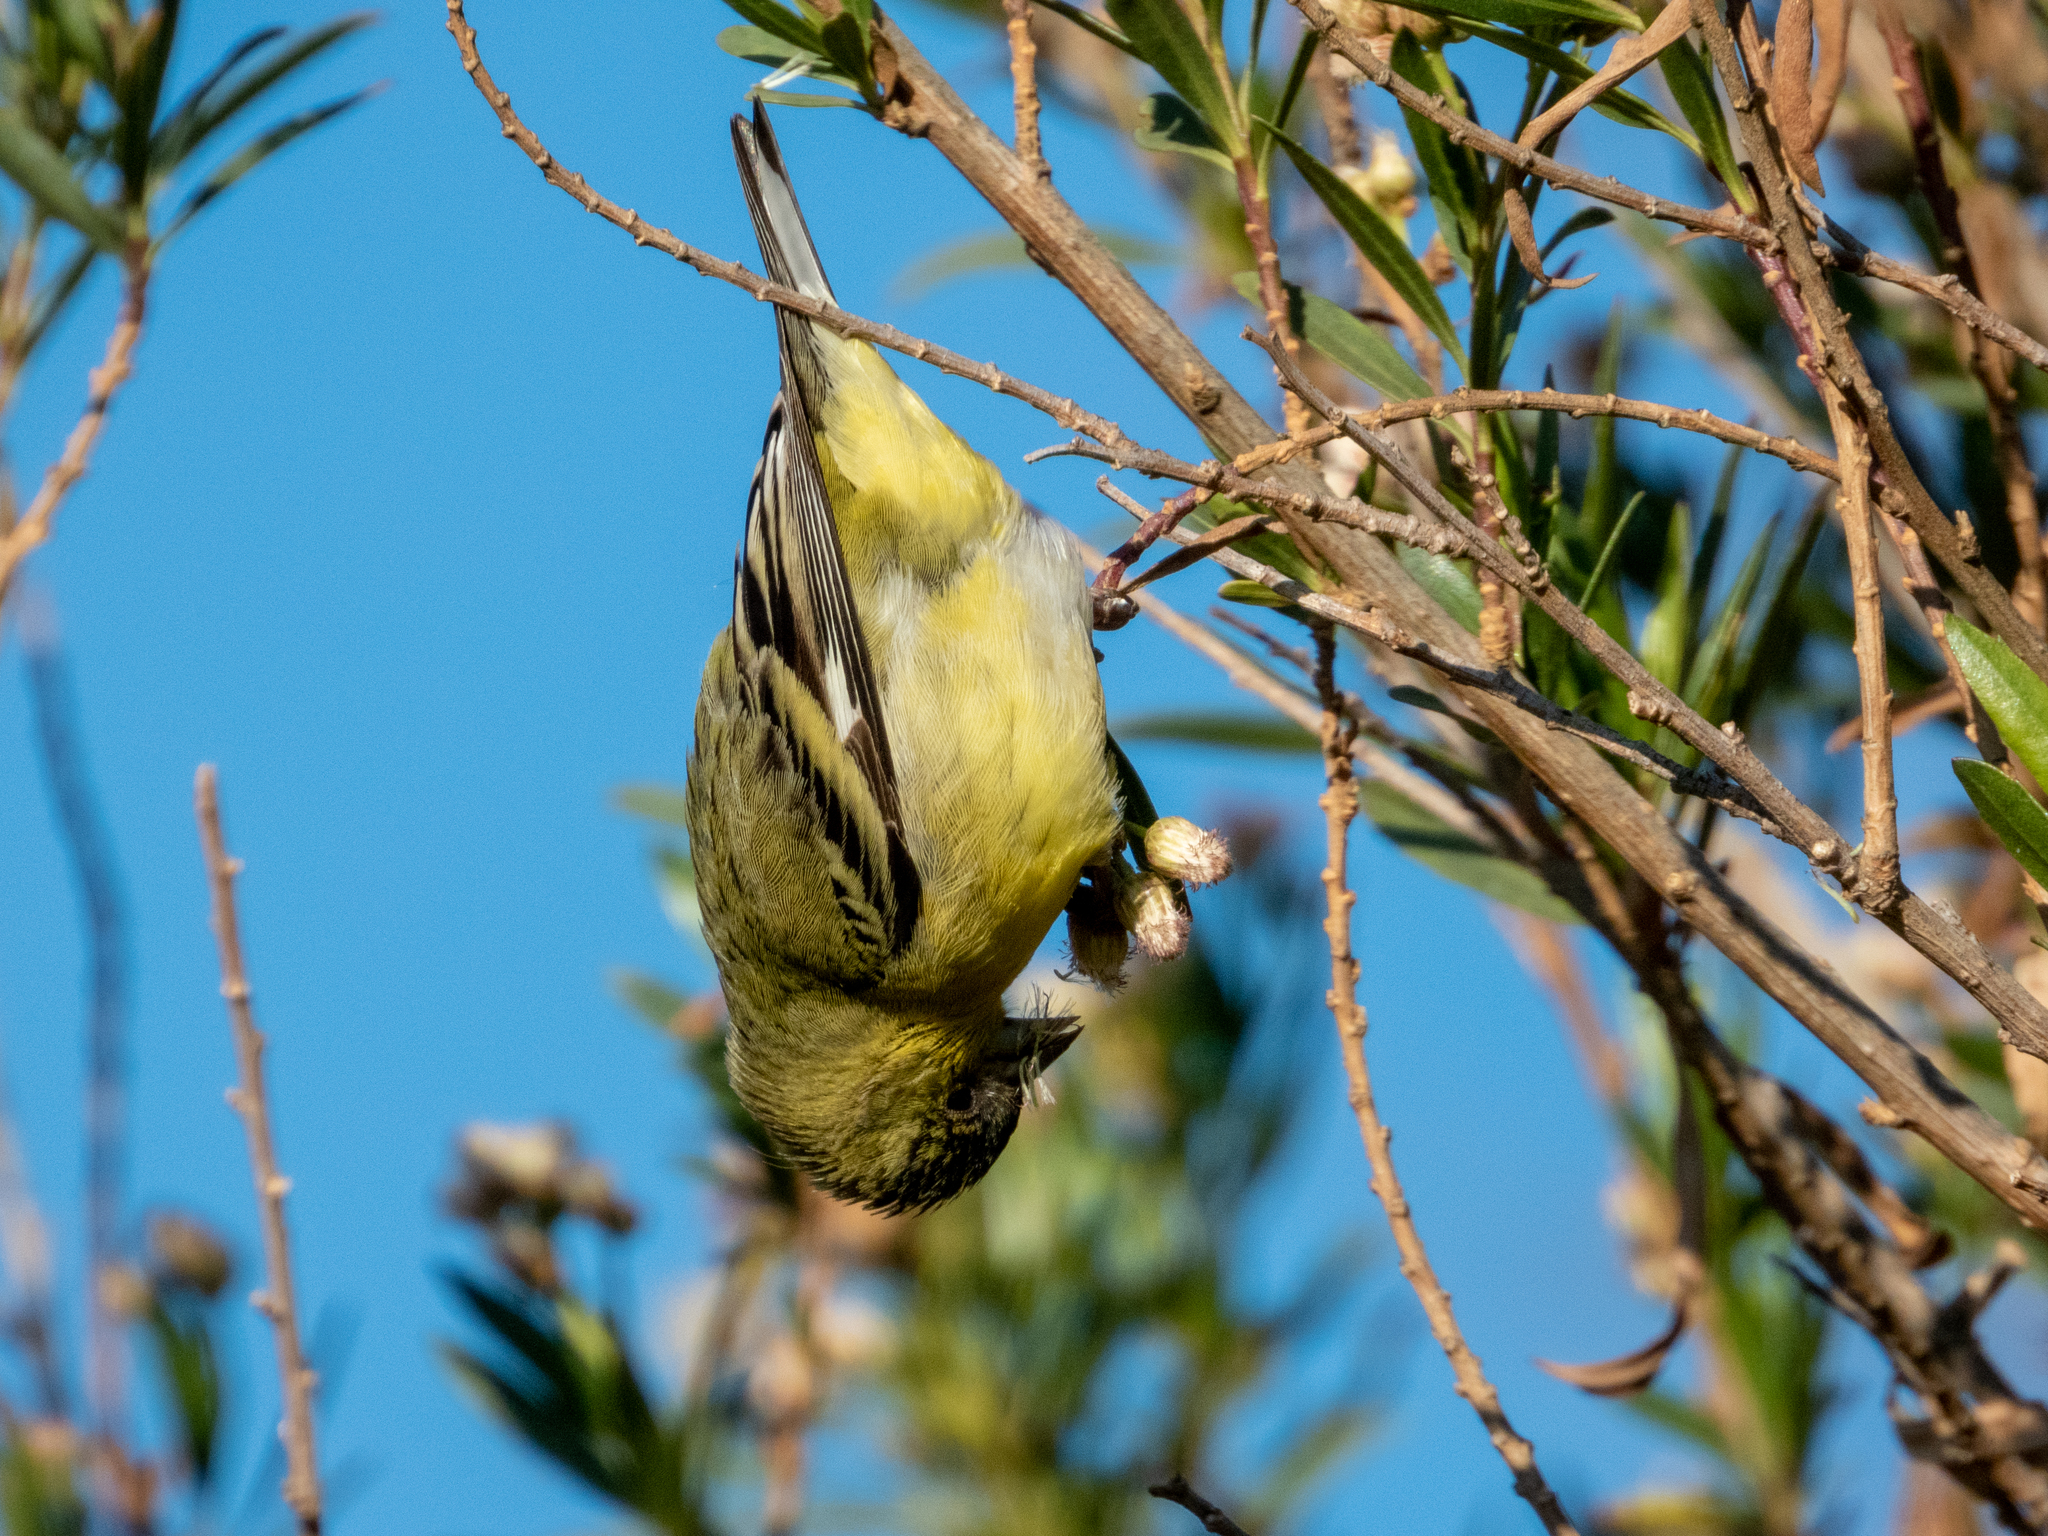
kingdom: Animalia
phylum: Chordata
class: Aves
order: Passeriformes
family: Fringillidae
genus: Spinus
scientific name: Spinus psaltria
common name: Lesser goldfinch
